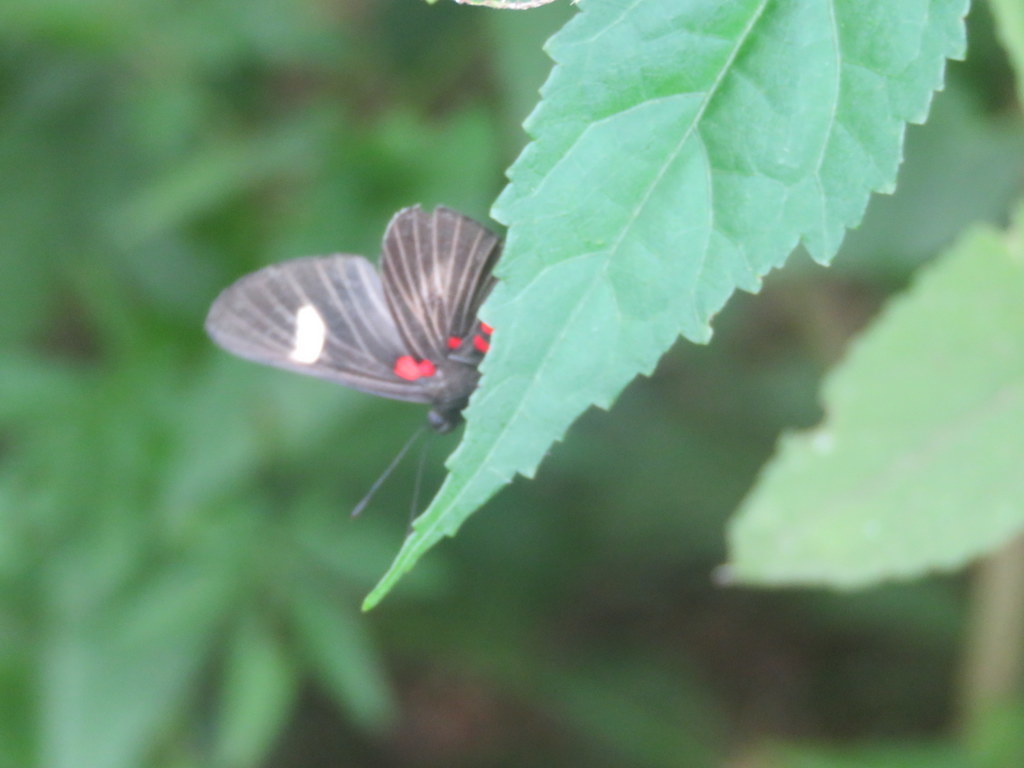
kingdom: Animalia
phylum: Arthropoda
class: Insecta
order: Lepidoptera
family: Lycaenidae
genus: Melanis
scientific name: Melanis aegates
